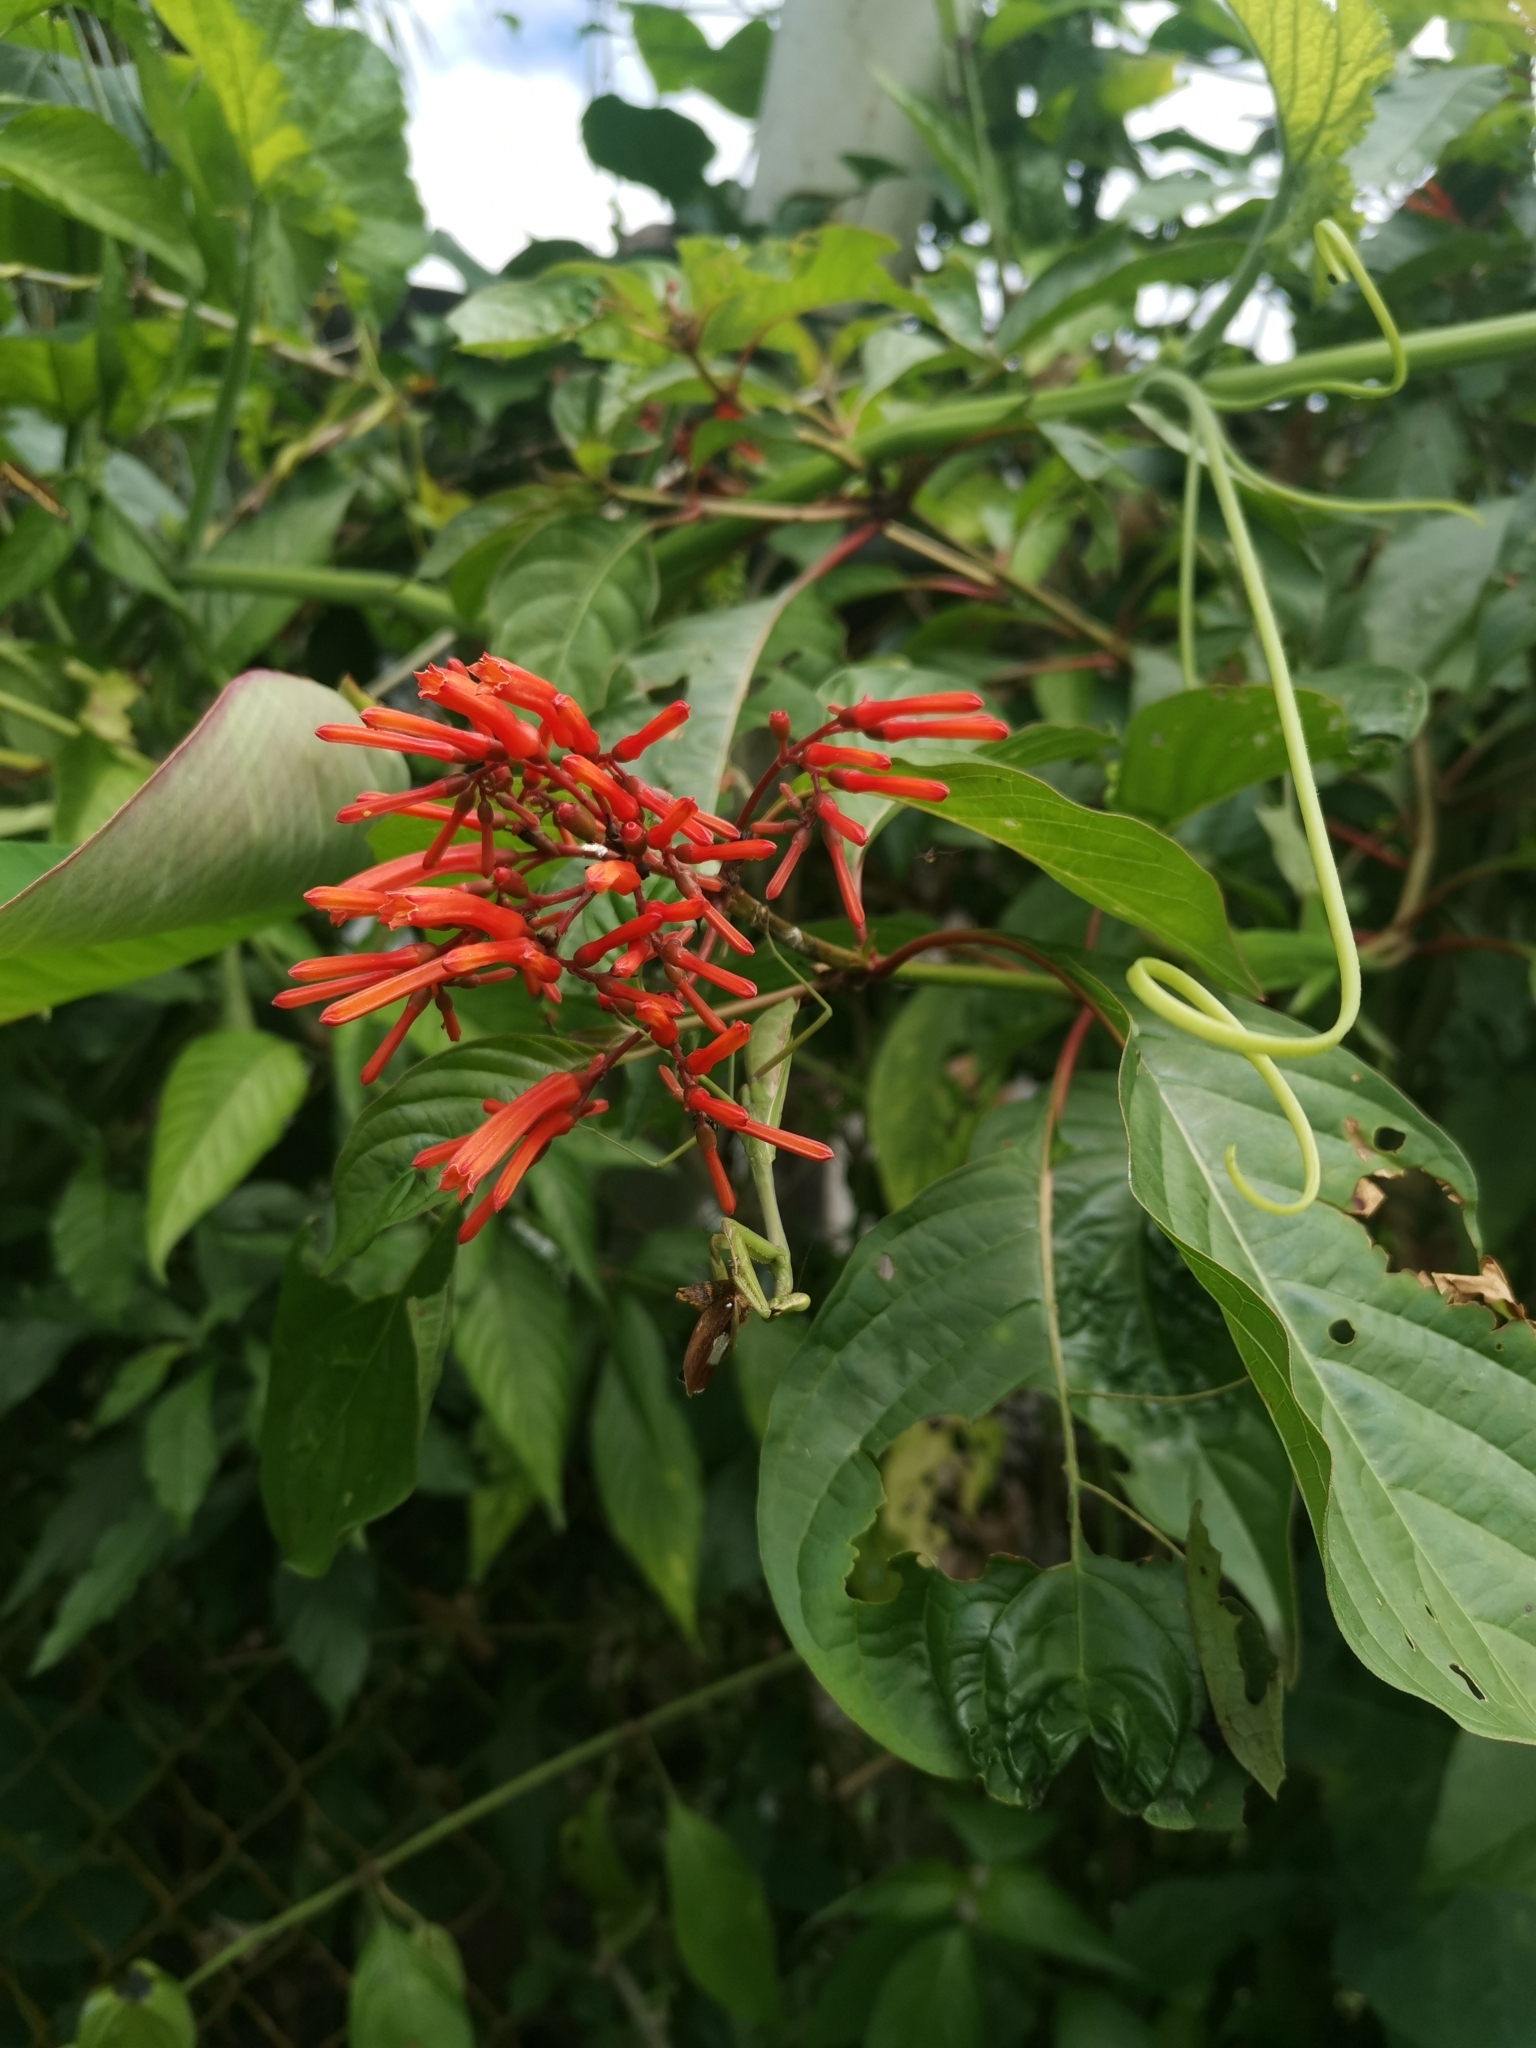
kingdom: Plantae
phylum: Tracheophyta
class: Magnoliopsida
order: Gentianales
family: Rubiaceae
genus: Hamelia
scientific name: Hamelia patens
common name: Redhead
